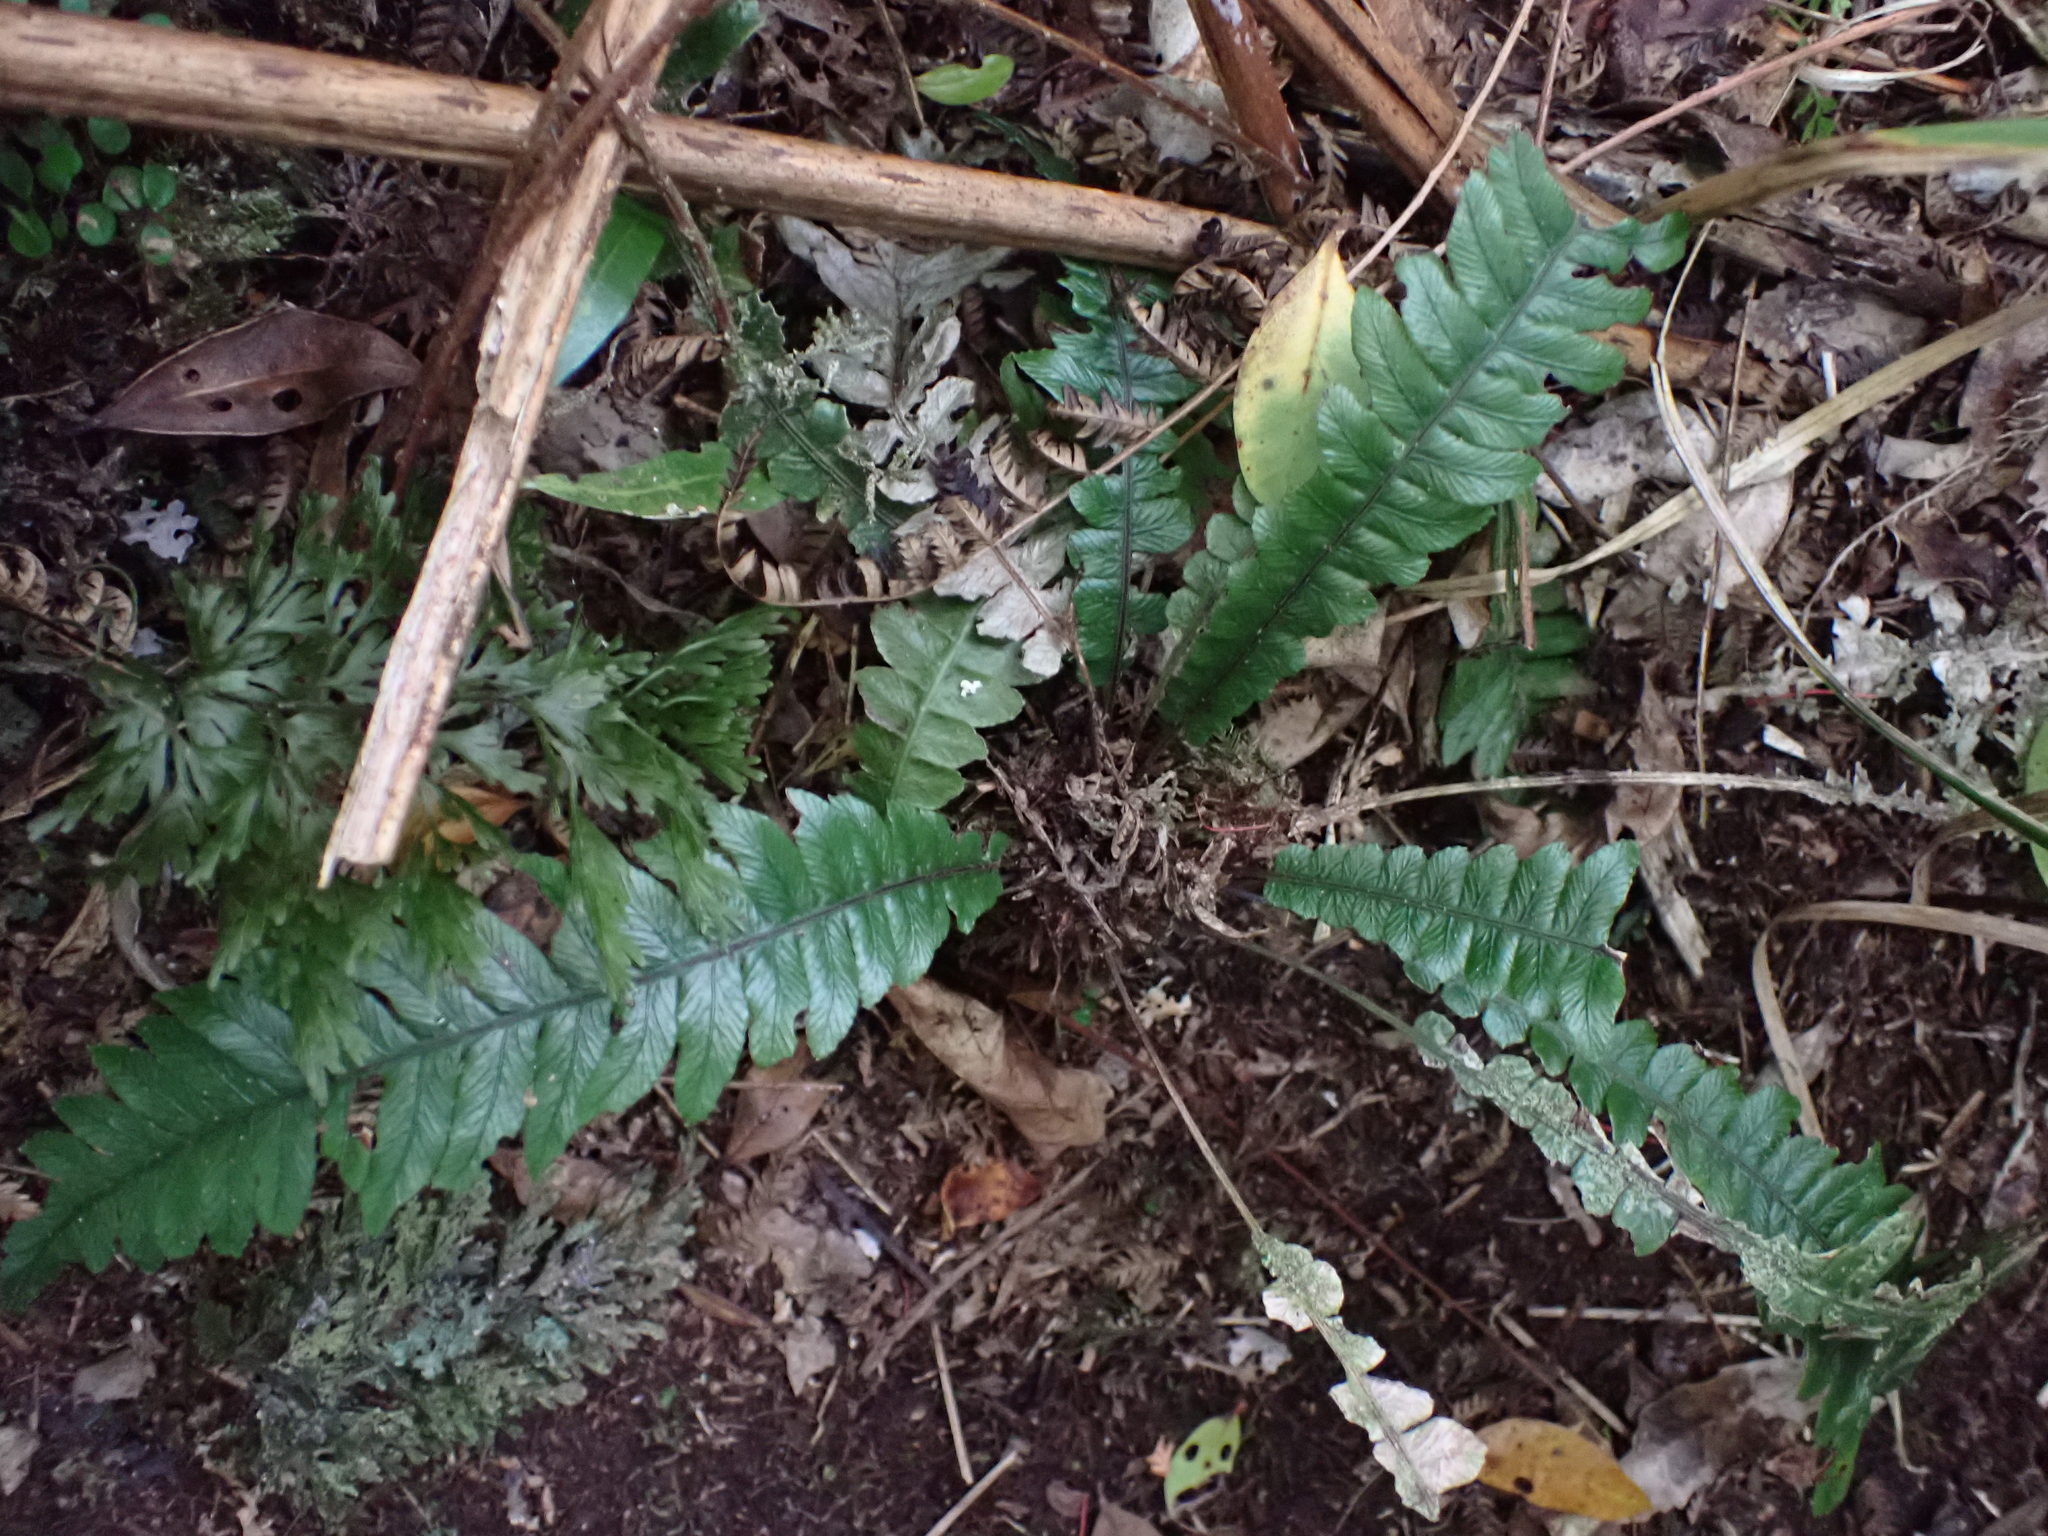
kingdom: Plantae
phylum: Tracheophyta
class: Polypodiopsida
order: Polypodiales
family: Blechnaceae
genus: Austroblechnum
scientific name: Austroblechnum lanceolatum
